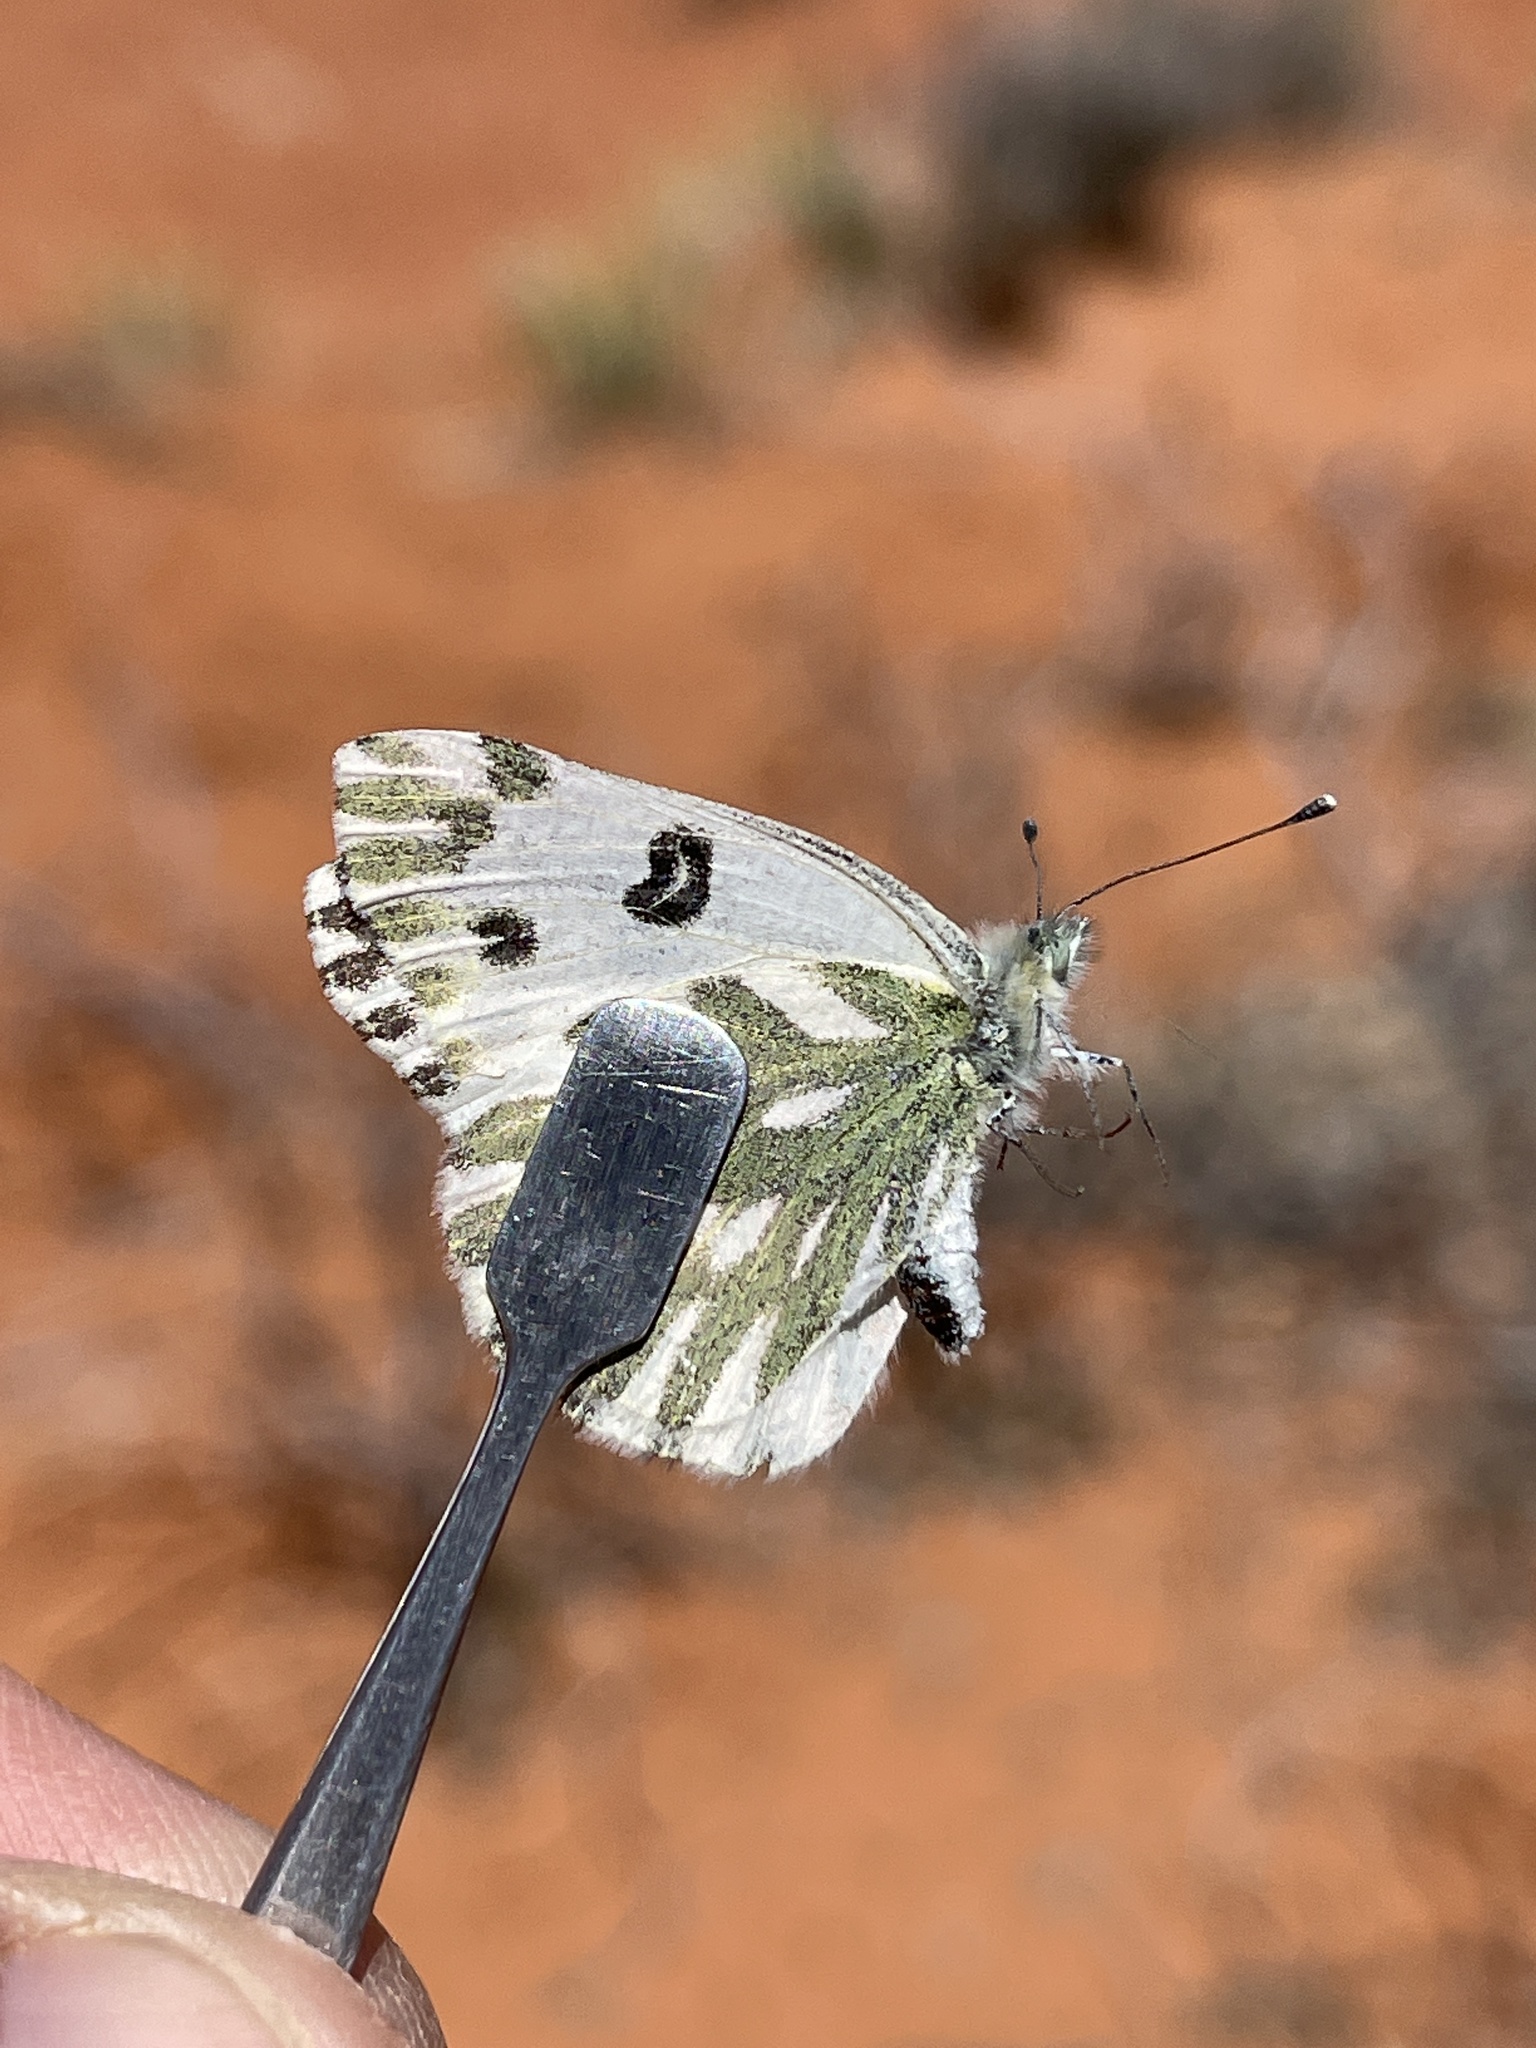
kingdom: Animalia
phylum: Arthropoda
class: Insecta
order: Lepidoptera
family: Pieridae
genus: Pontia
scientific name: Pontia beckerii
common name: Becker's white
